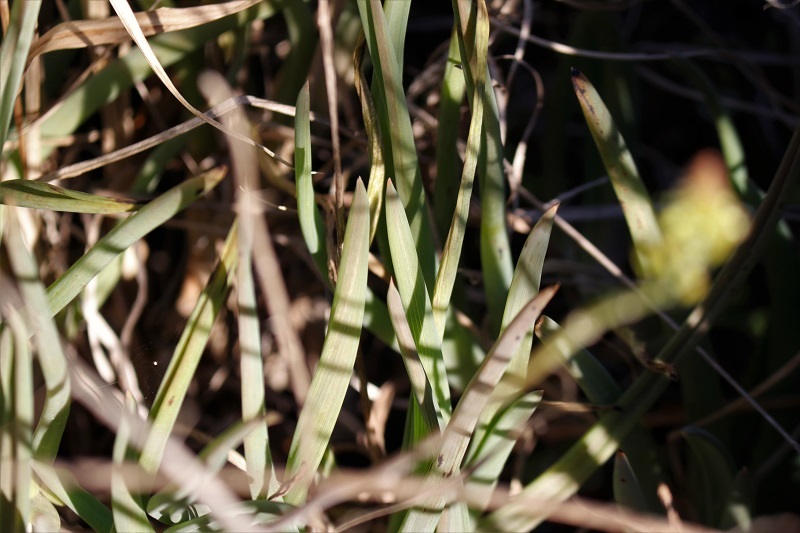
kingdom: Plantae
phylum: Tracheophyta
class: Liliopsida
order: Asparagales
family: Asphodelaceae
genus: Bulbine
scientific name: Bulbine frutescens
